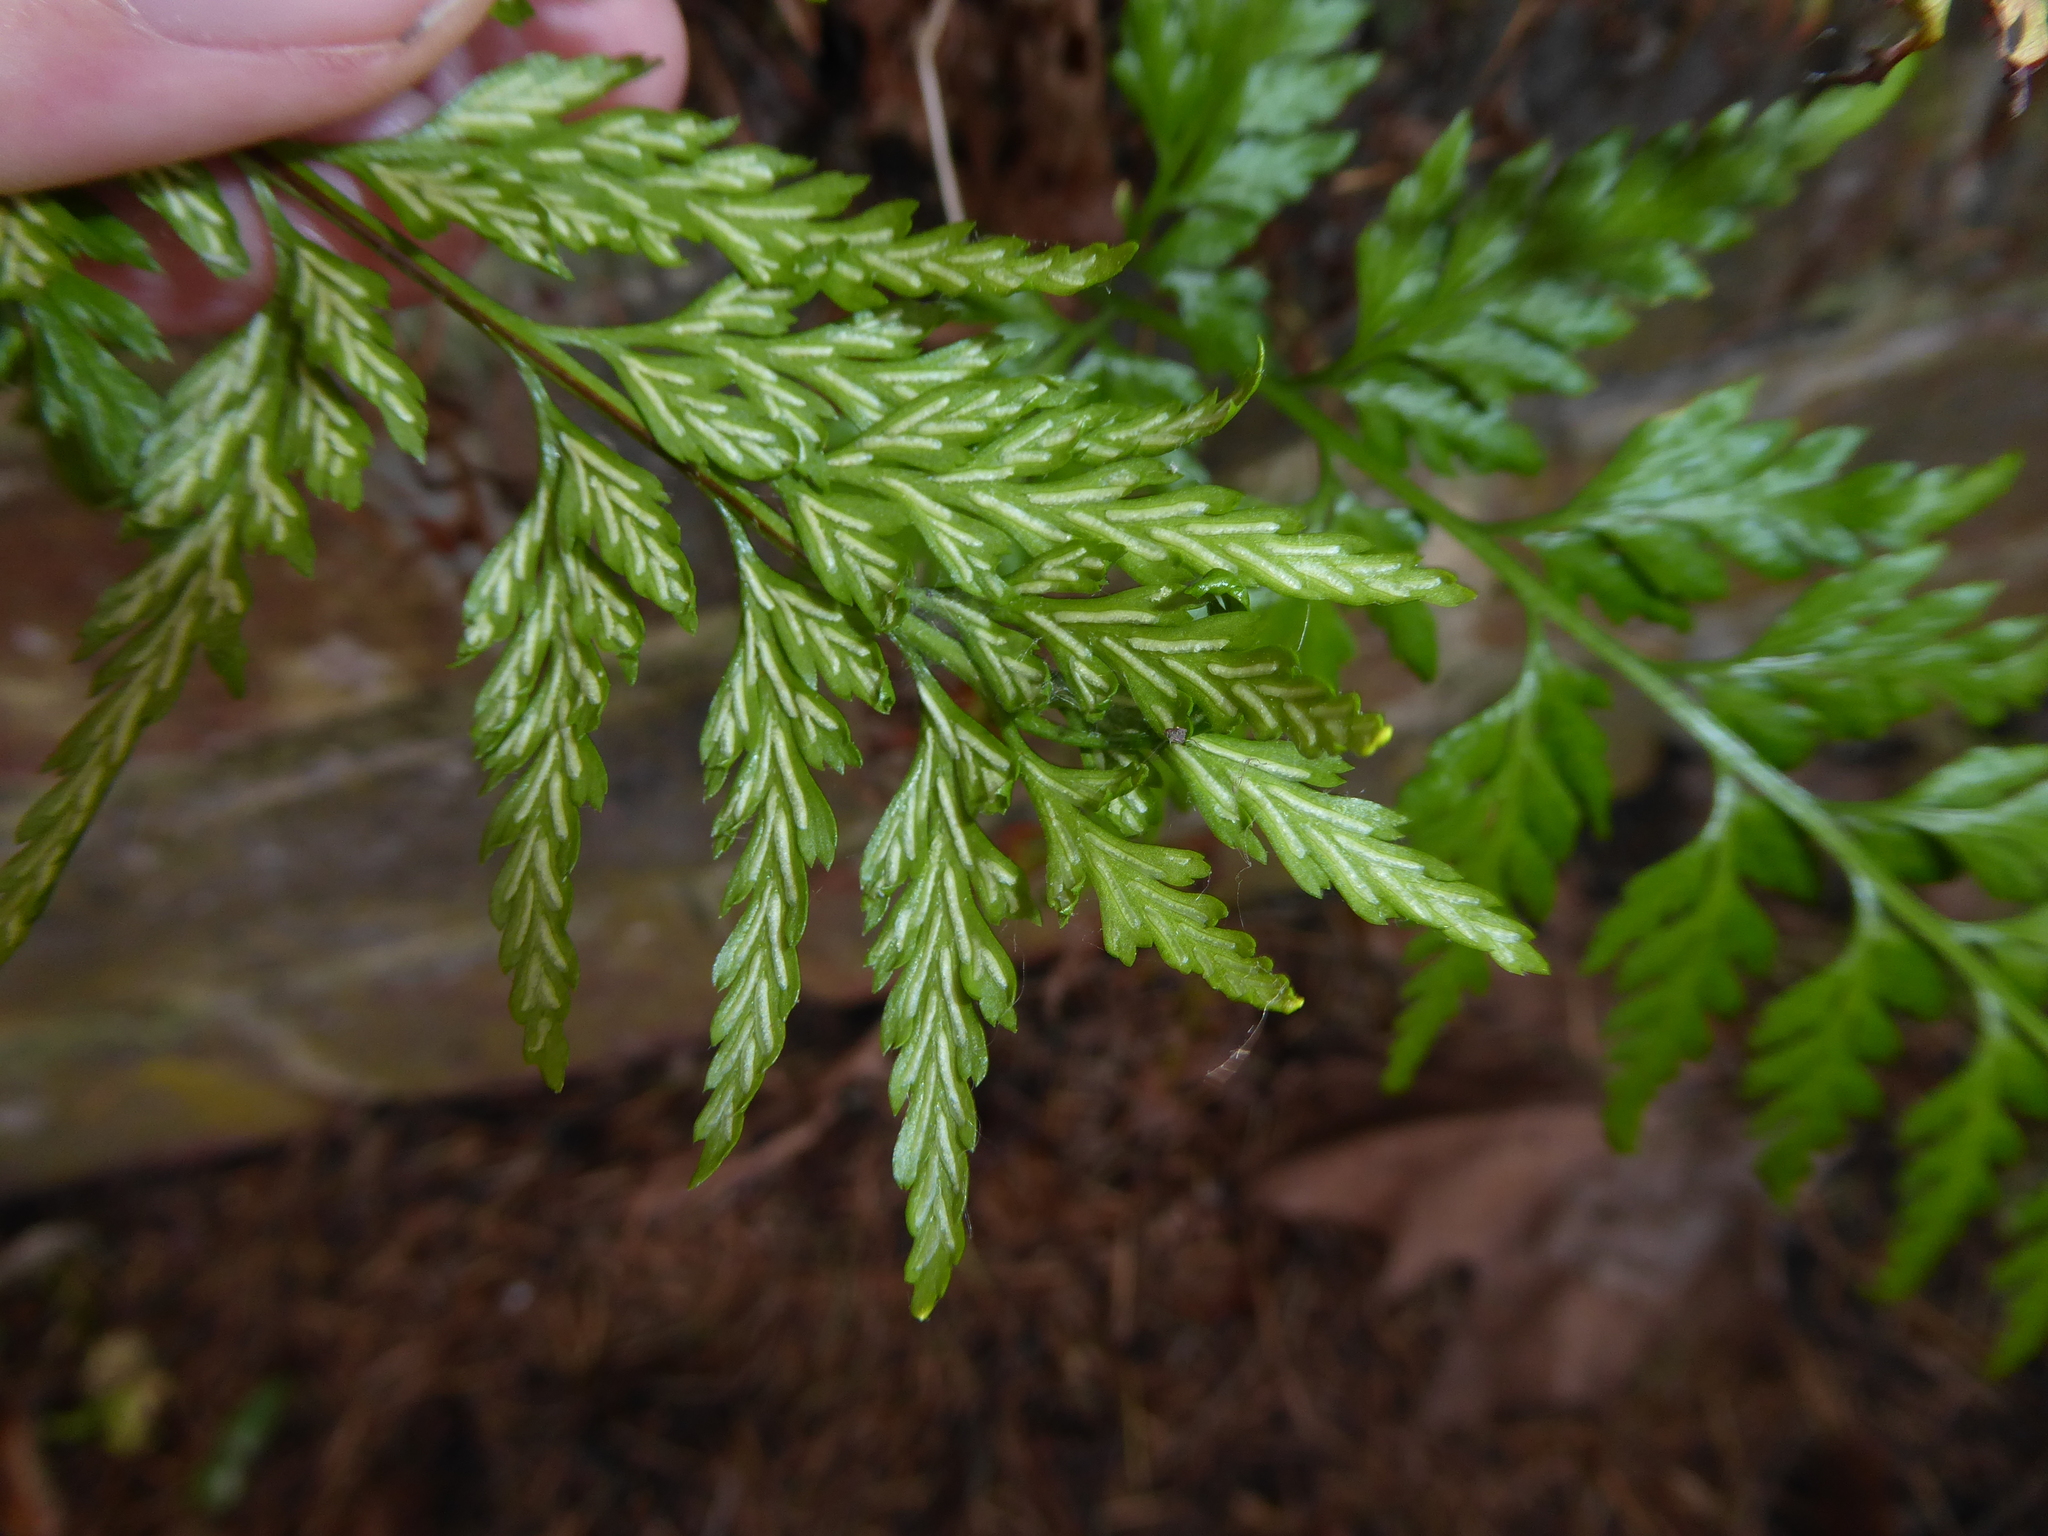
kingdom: Plantae
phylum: Tracheophyta
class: Polypodiopsida
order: Polypodiales
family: Aspleniaceae
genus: Asplenium
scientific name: Asplenium adiantum-nigrum
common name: Black spleenwort
